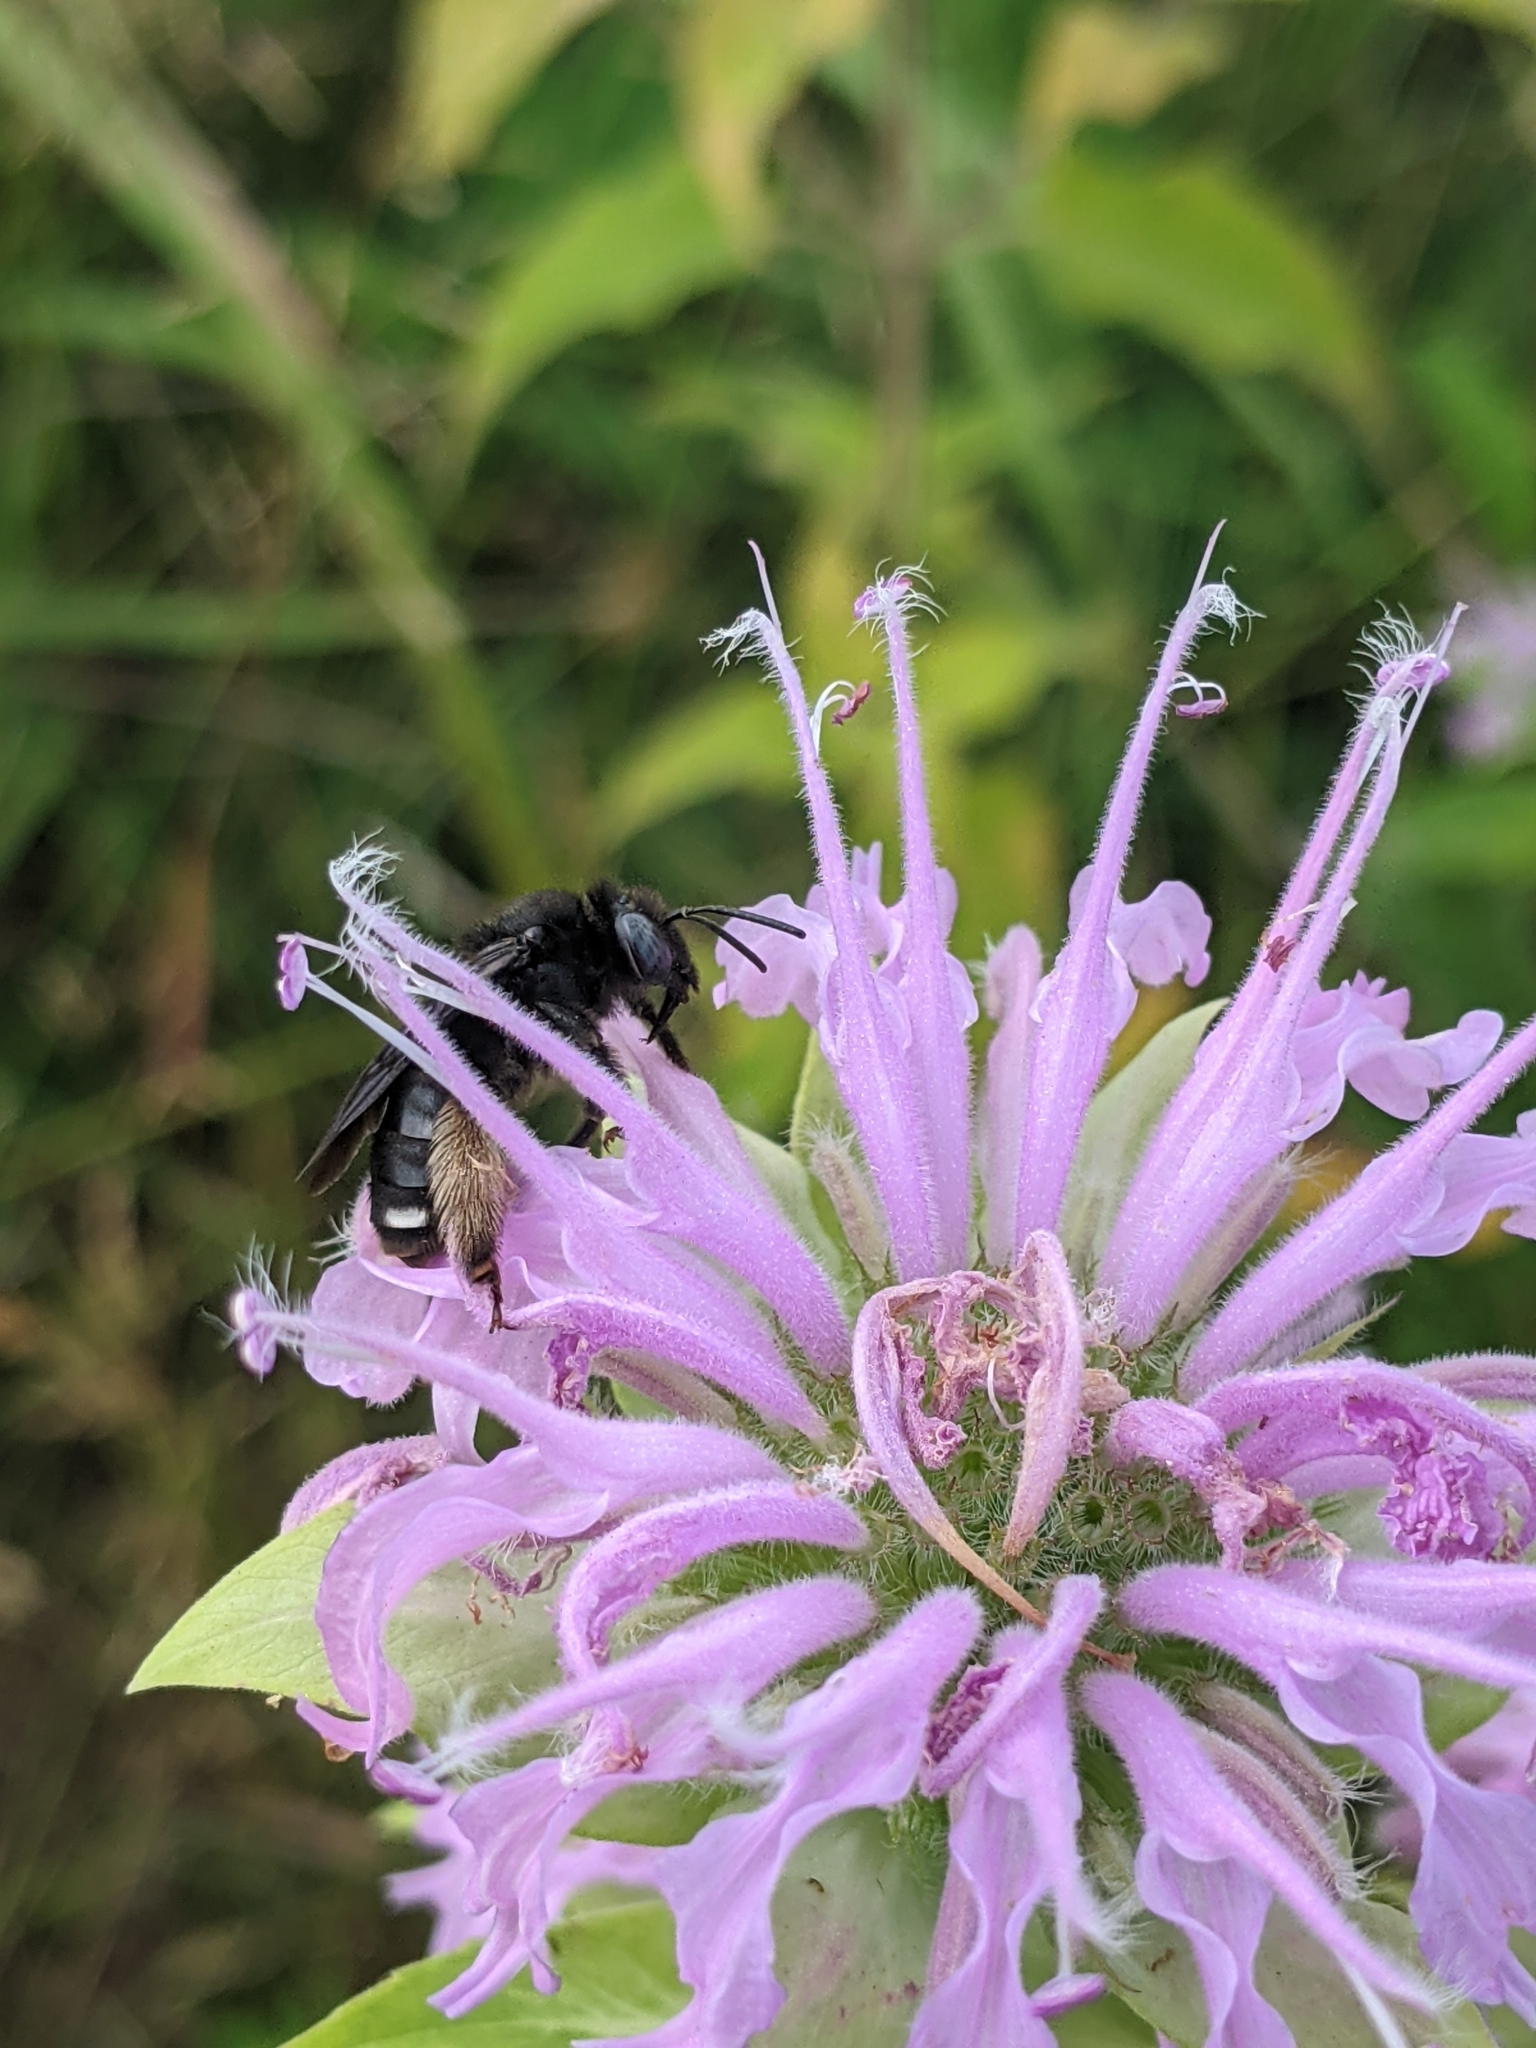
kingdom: Animalia
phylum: Arthropoda
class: Insecta
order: Hymenoptera
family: Apidae
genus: Melissodes
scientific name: Melissodes bimaculatus
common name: Two-spotted long-horned bee
